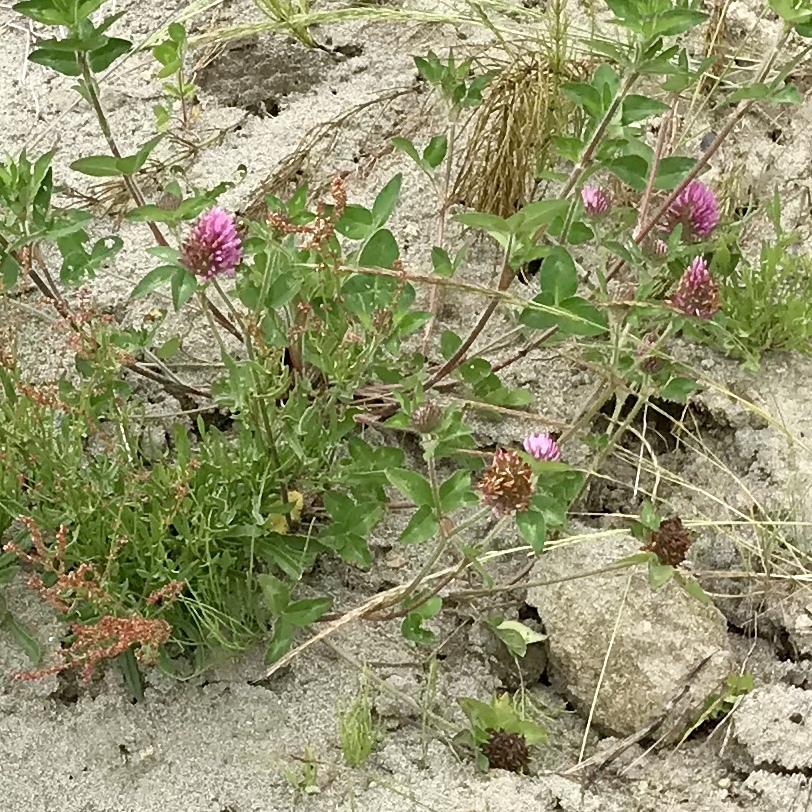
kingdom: Plantae
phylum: Tracheophyta
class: Magnoliopsida
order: Fabales
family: Fabaceae
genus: Trifolium
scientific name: Trifolium pratense
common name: Red clover
